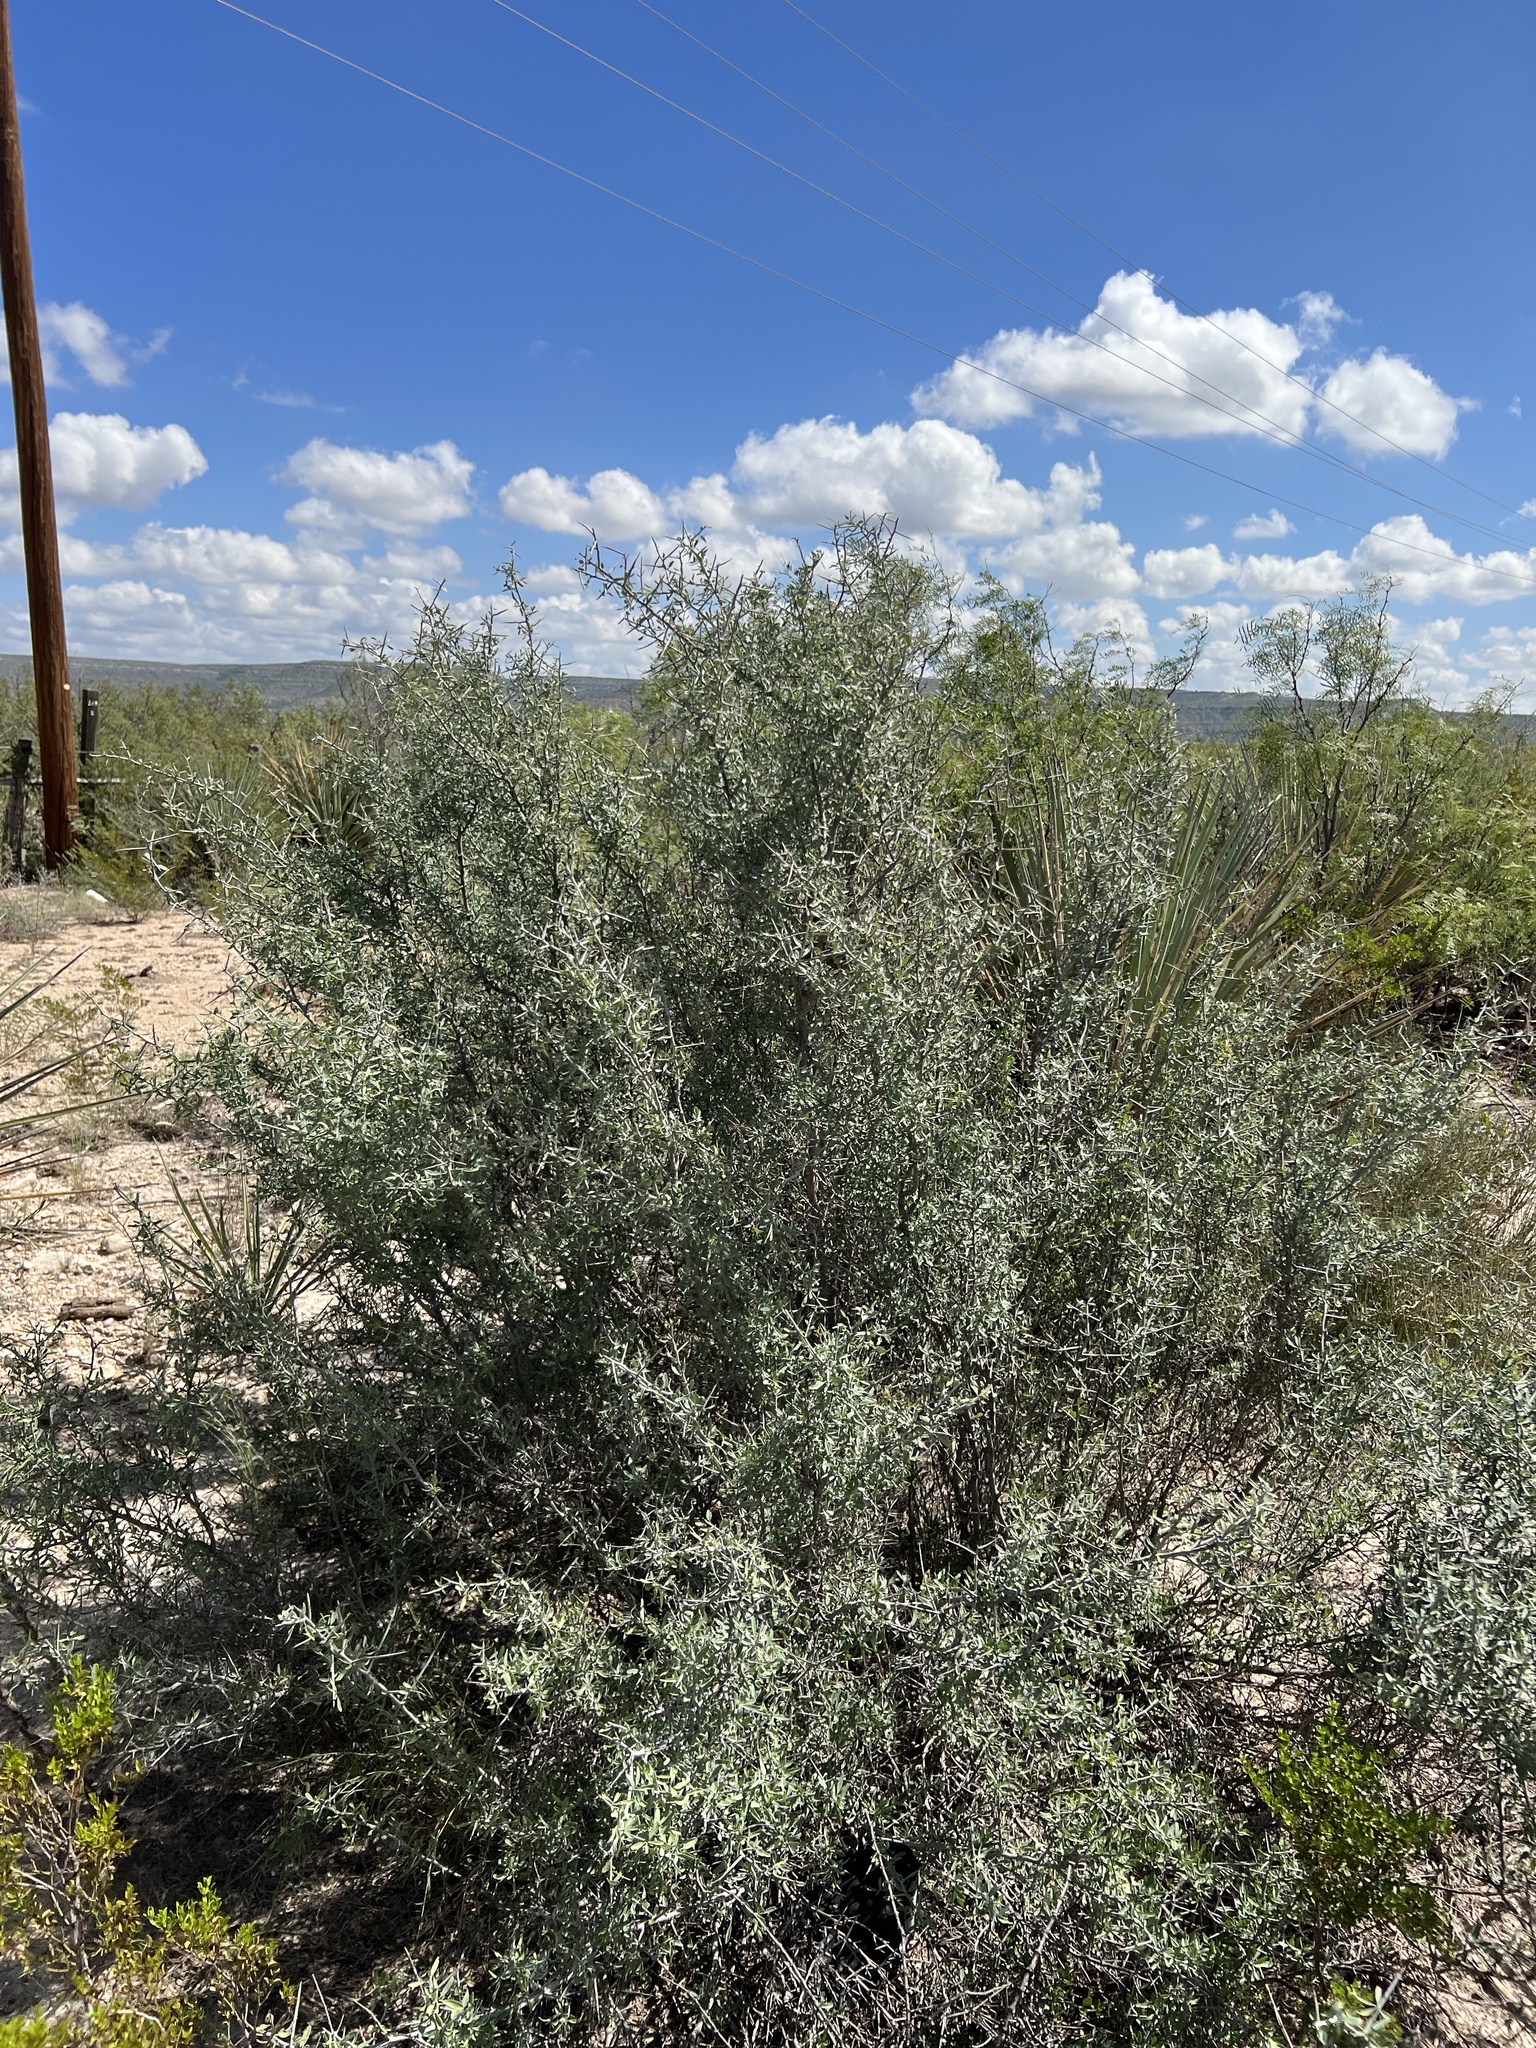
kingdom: Plantae
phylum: Tracheophyta
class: Magnoliopsida
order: Rosales
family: Rhamnaceae
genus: Sarcomphalus
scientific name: Sarcomphalus obtusifolius
